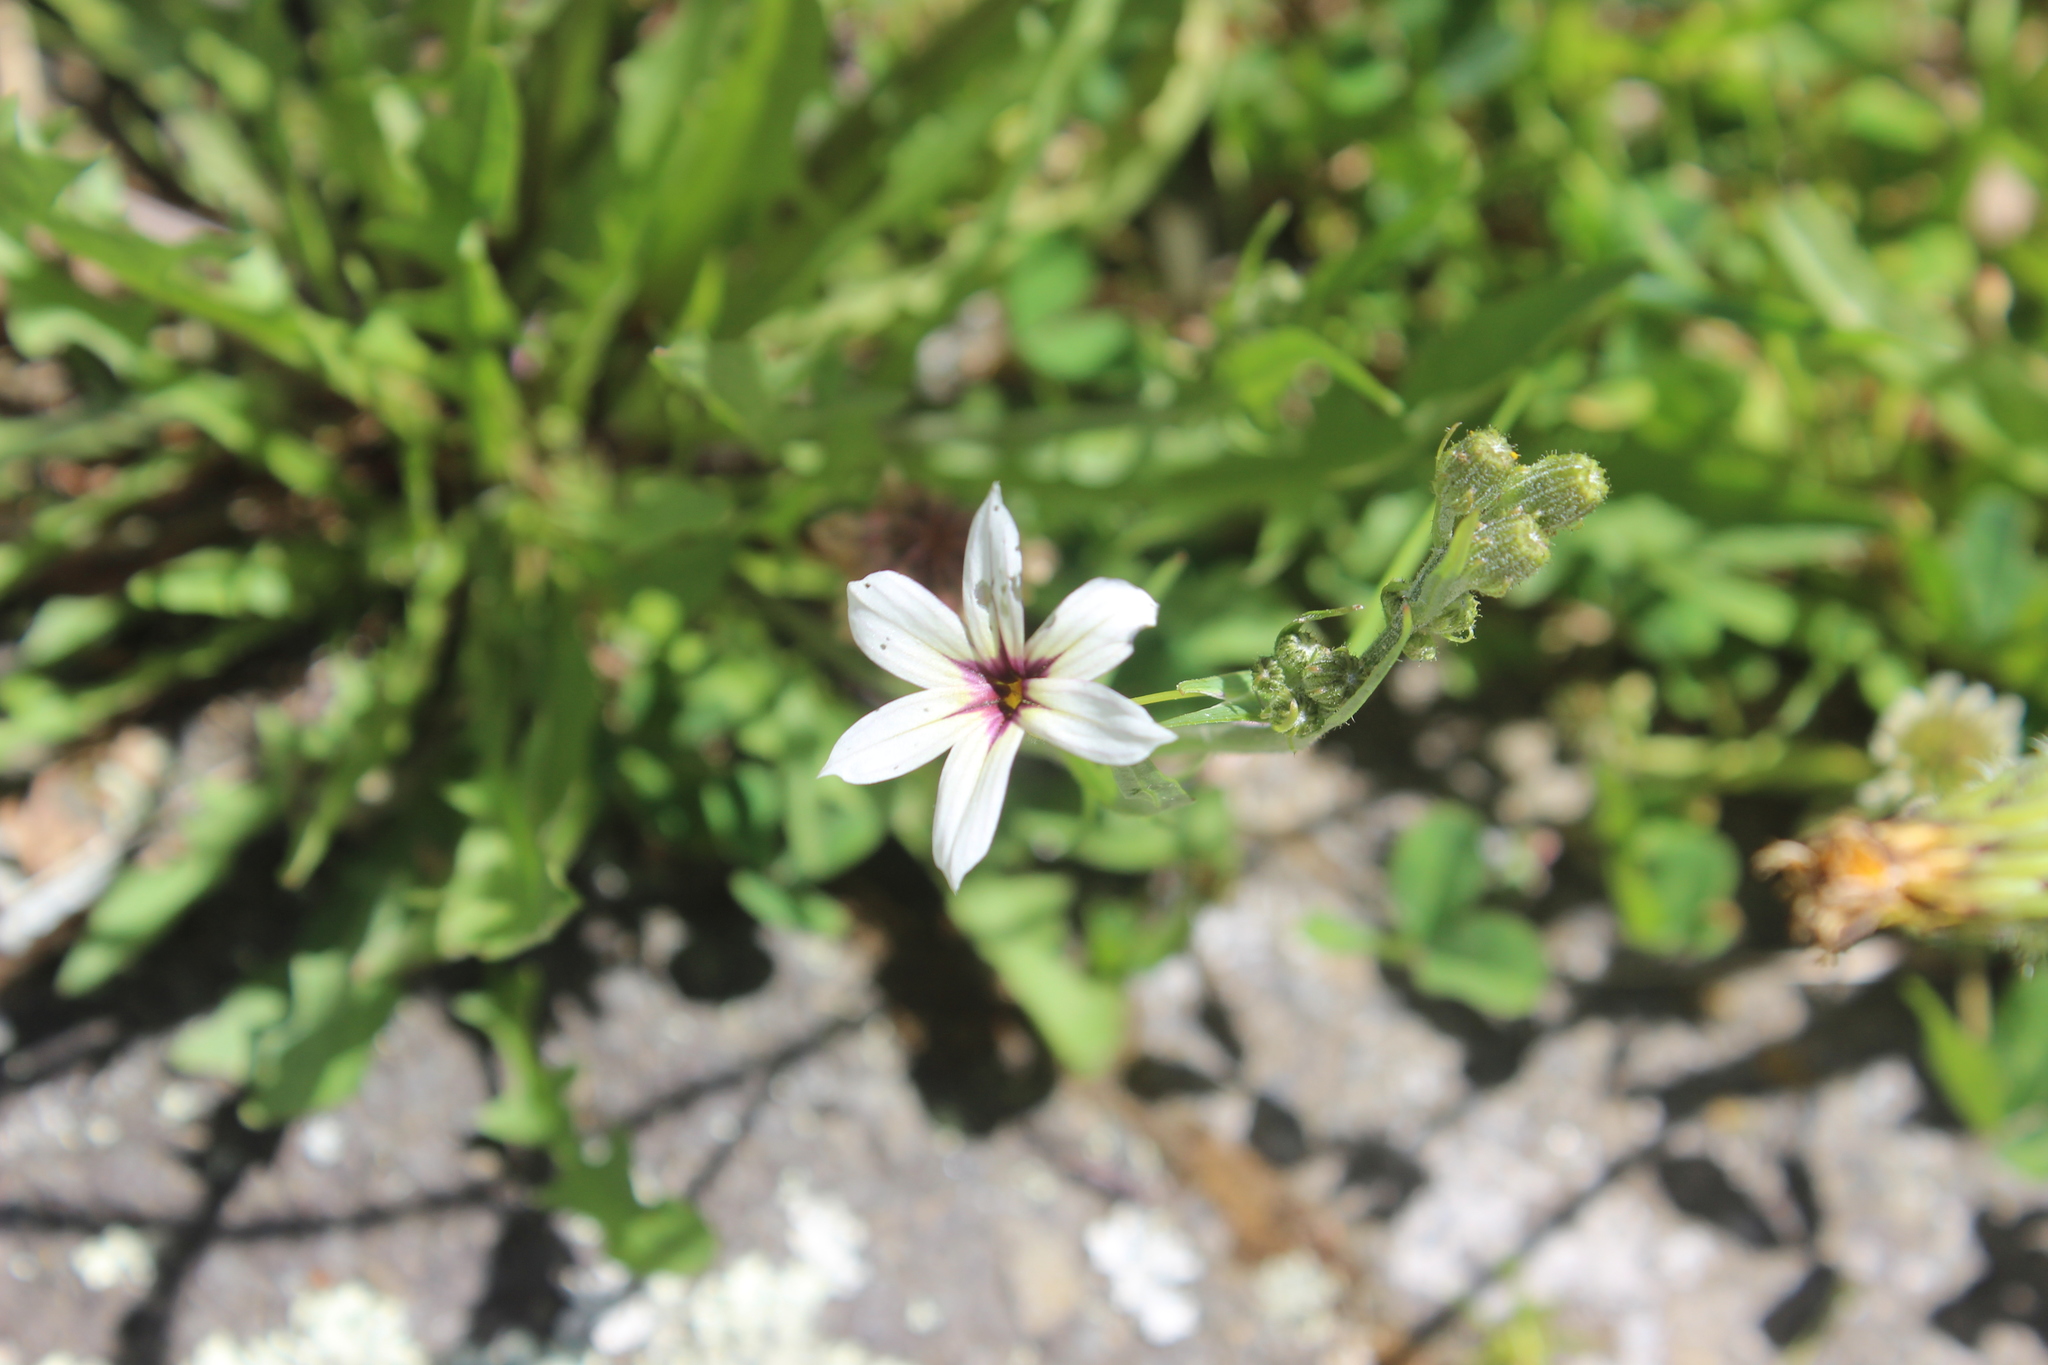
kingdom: Plantae
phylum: Tracheophyta
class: Liliopsida
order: Asparagales
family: Iridaceae
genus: Sisyrinchium
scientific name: Sisyrinchium micranthum
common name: Bermuda pigroot
